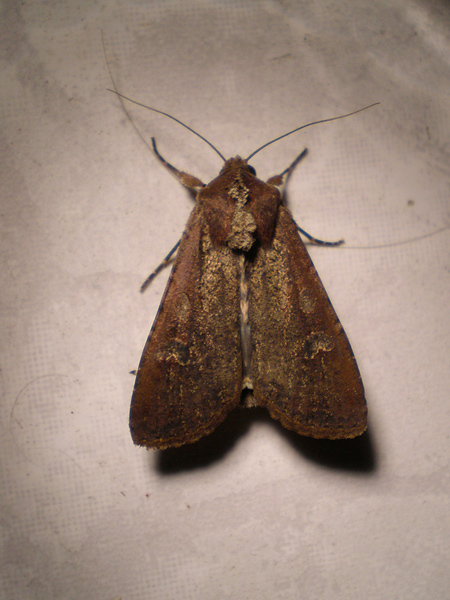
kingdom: Animalia
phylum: Arthropoda
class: Insecta
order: Lepidoptera
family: Noctuidae
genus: Peridroma
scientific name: Peridroma saucia
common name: Pearly underwing
